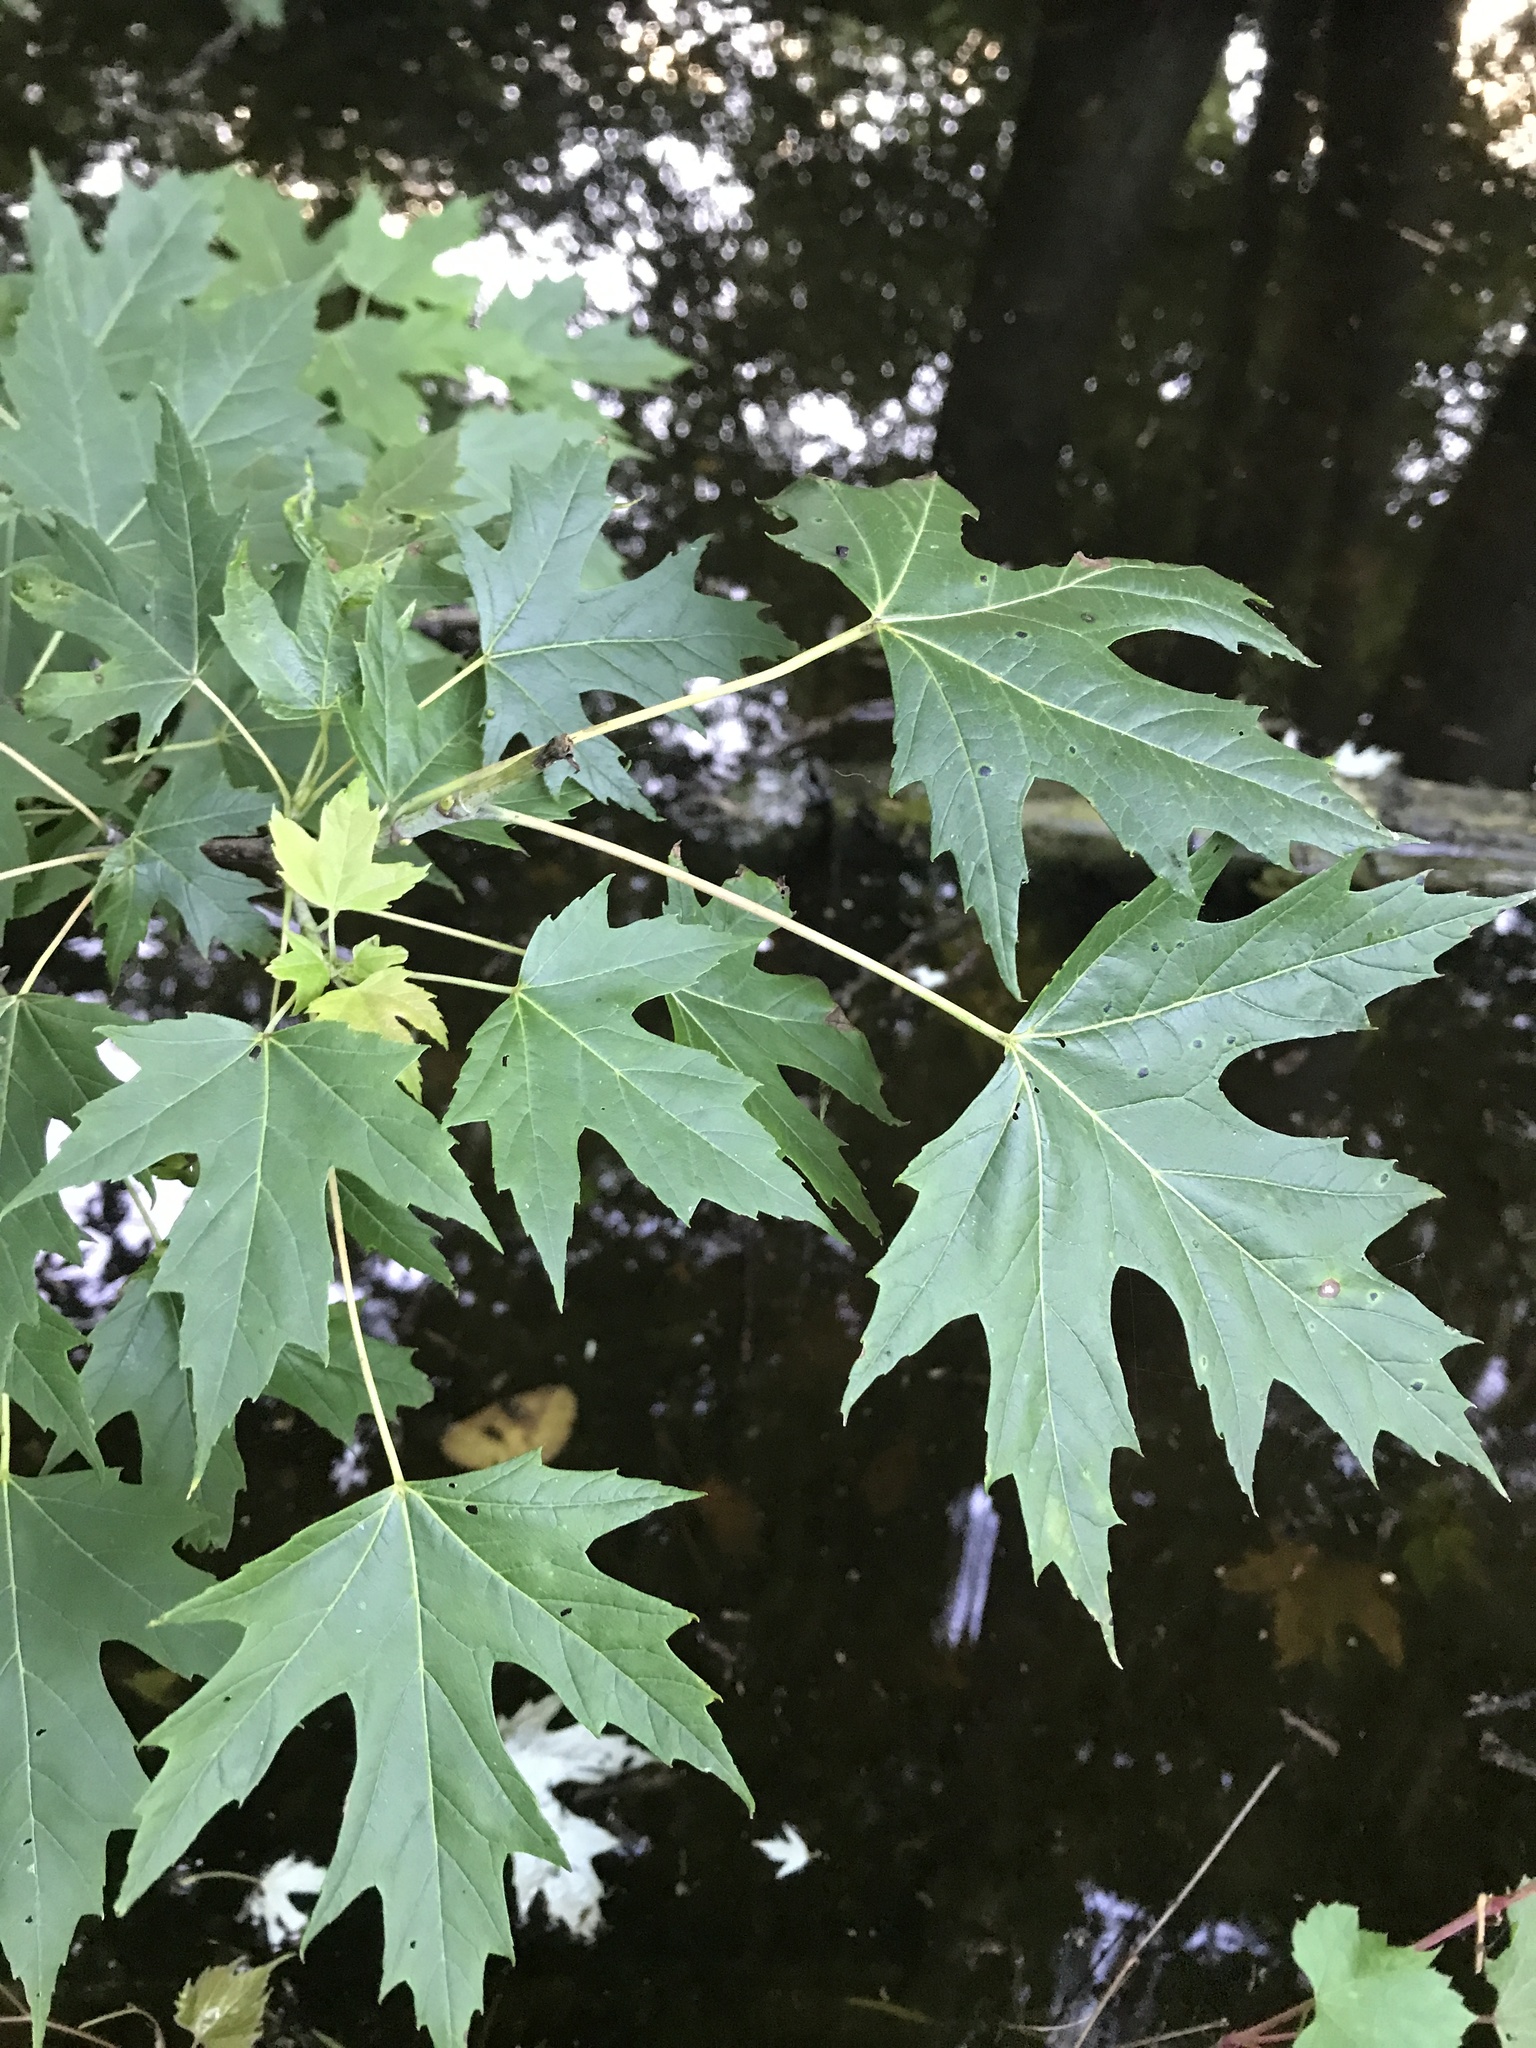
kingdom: Plantae
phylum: Tracheophyta
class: Magnoliopsida
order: Sapindales
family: Sapindaceae
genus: Acer
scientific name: Acer saccharinum
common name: Silver maple
